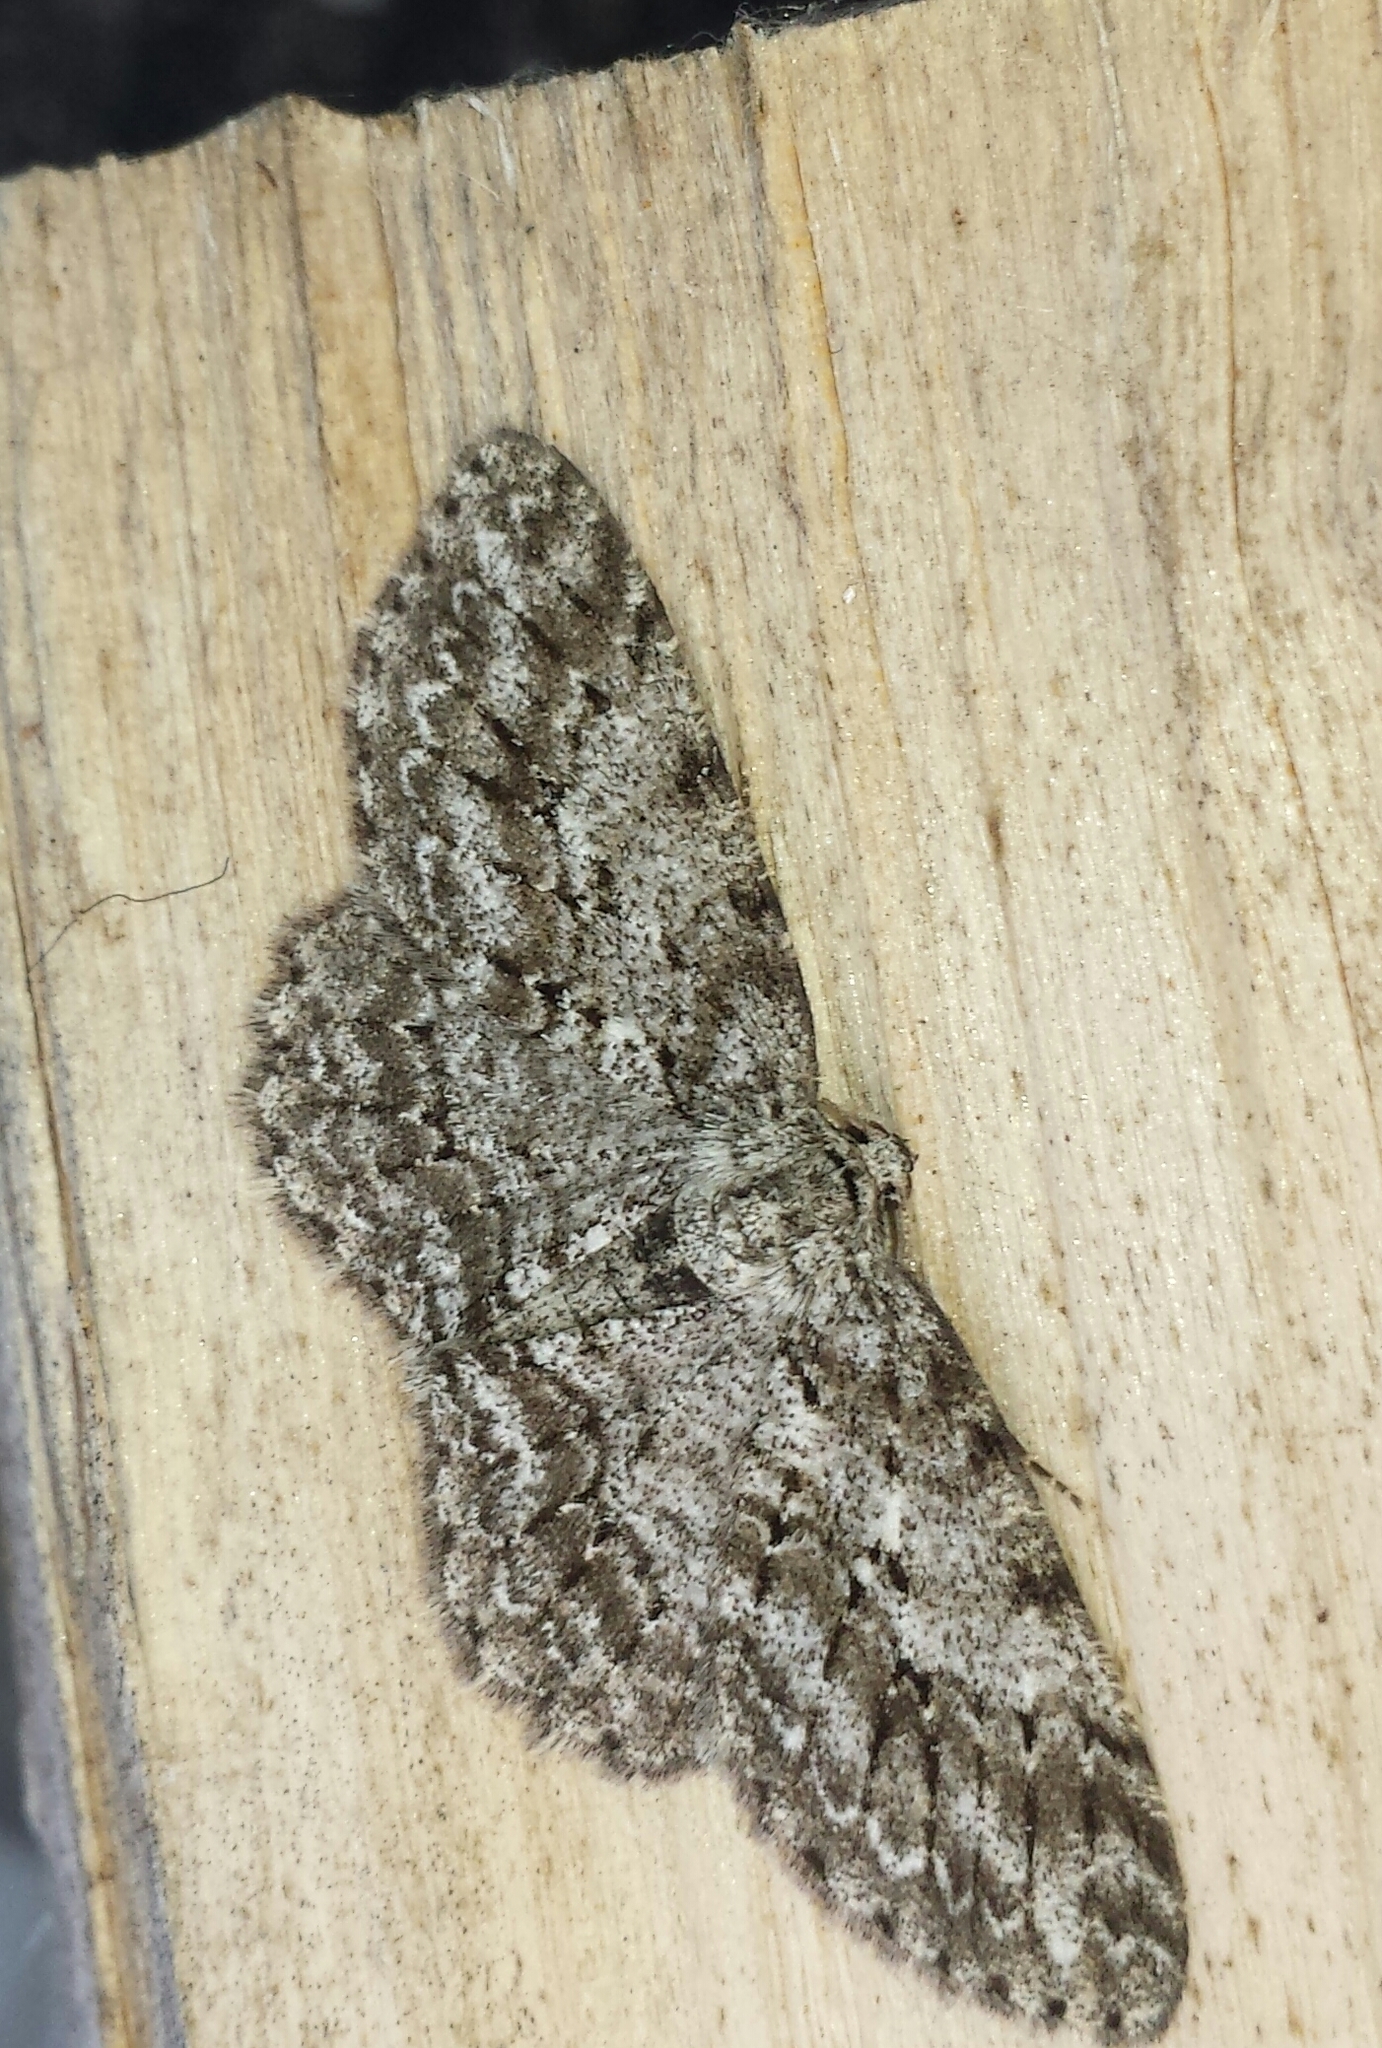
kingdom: Animalia
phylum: Arthropoda
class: Insecta
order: Lepidoptera
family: Geometridae
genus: Ectropis
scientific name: Ectropis crepuscularia
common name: Engrailed
